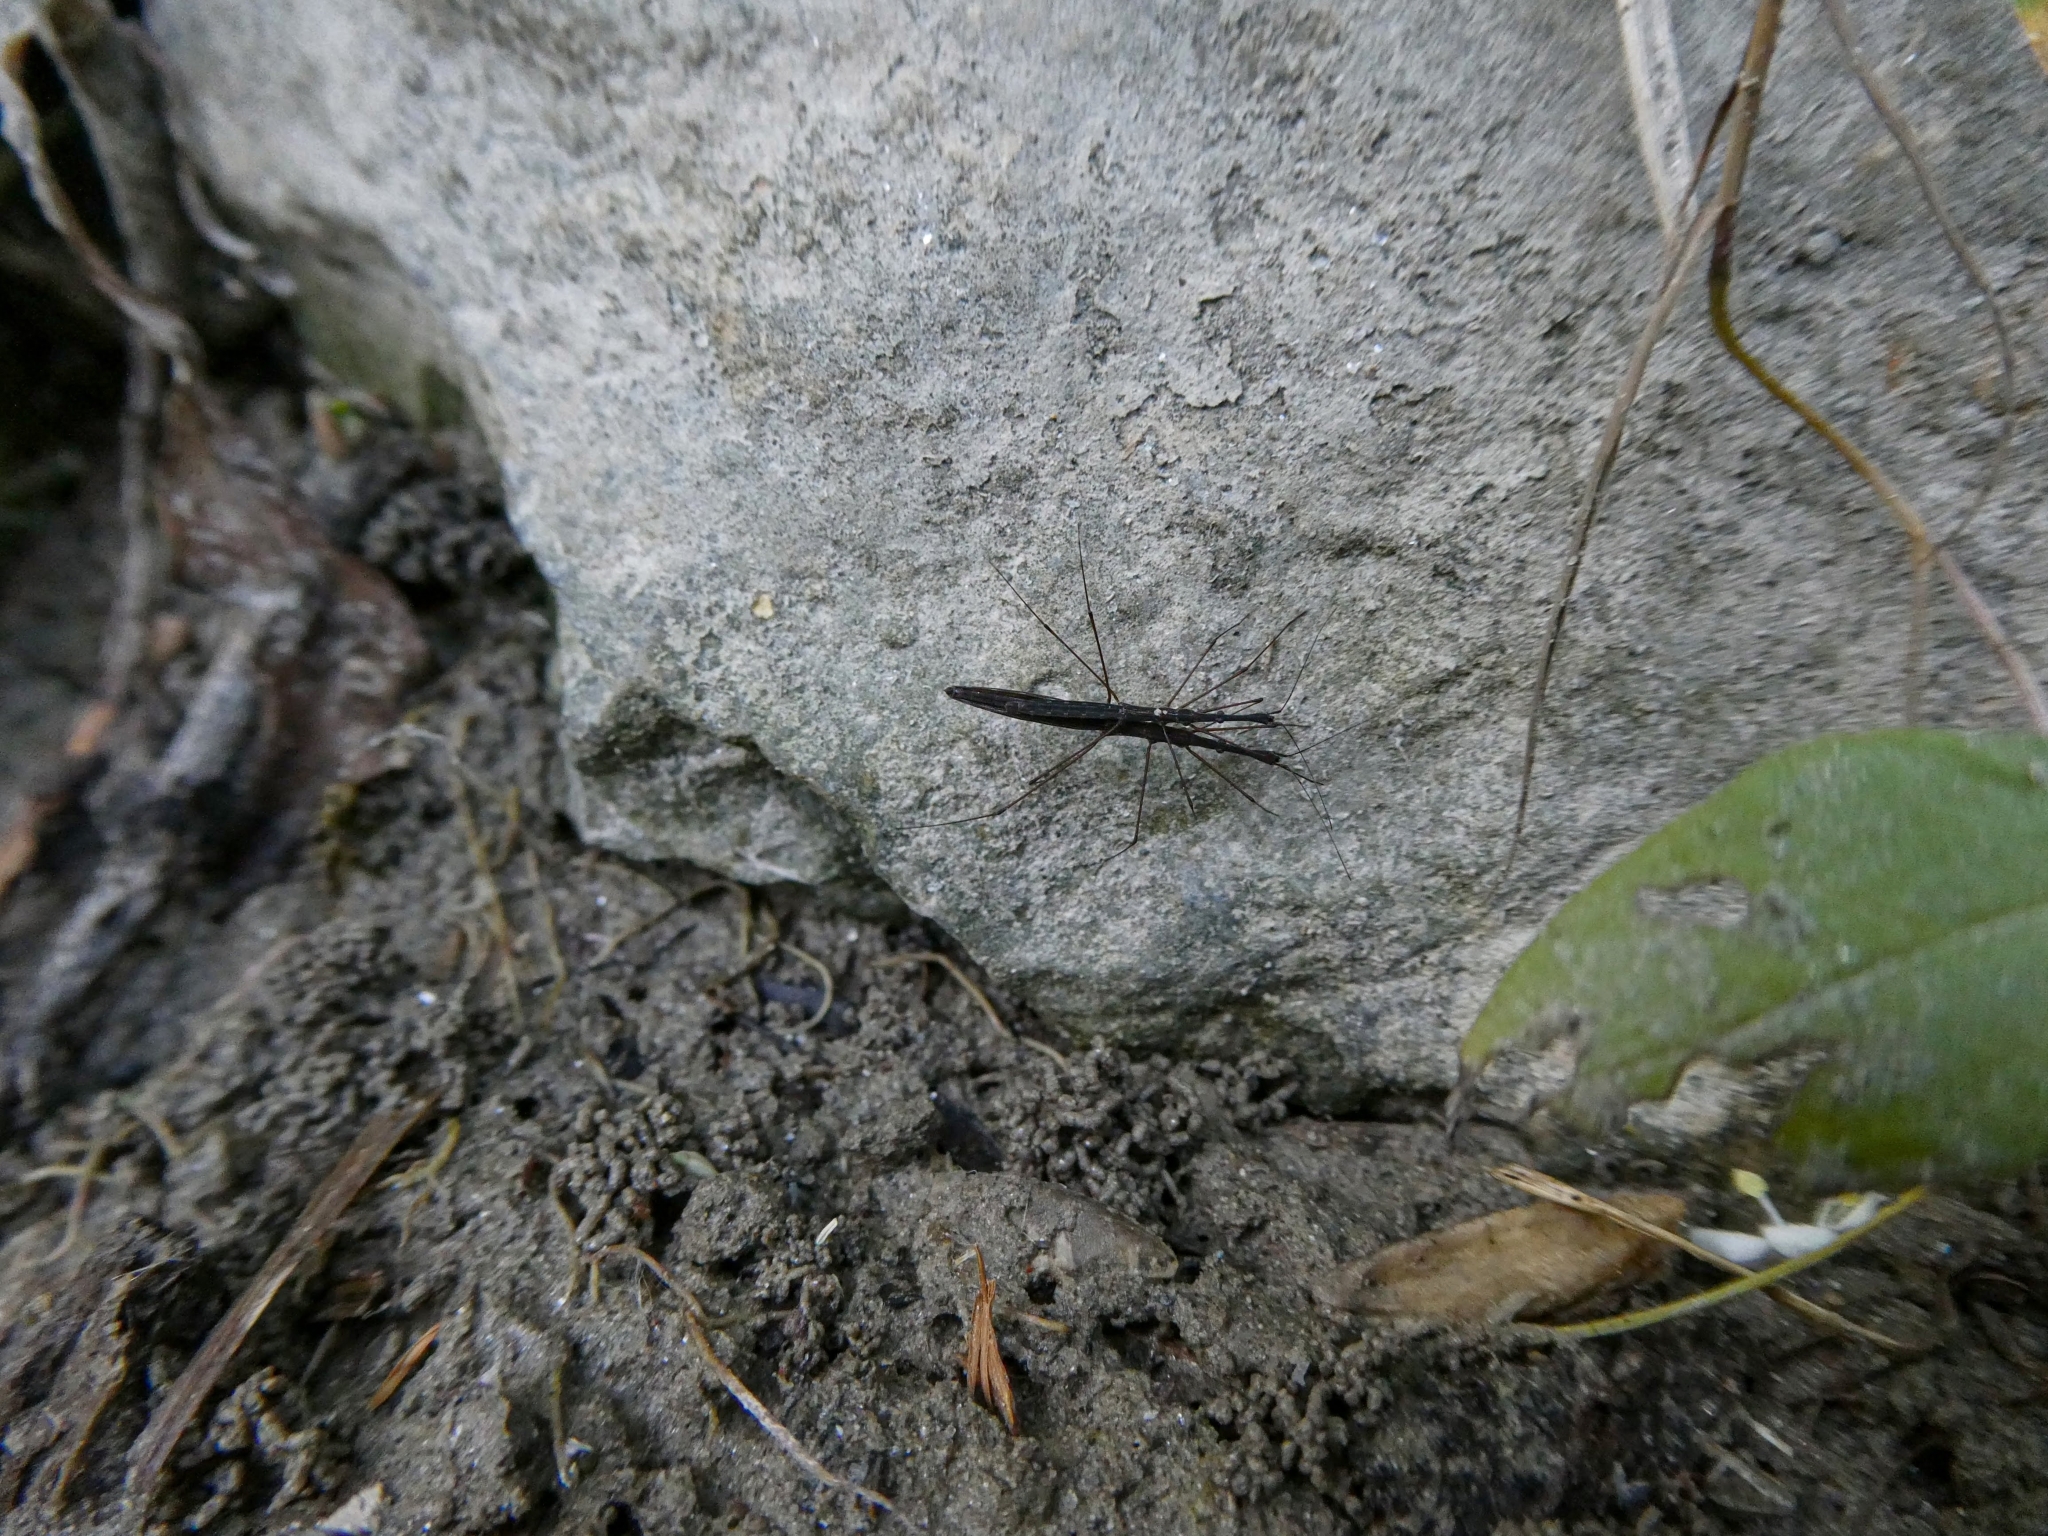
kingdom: Animalia
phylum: Arthropoda
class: Insecta
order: Hemiptera
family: Hydrometridae
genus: Hydrometra
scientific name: Hydrometra stagnorum
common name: Water measurer
